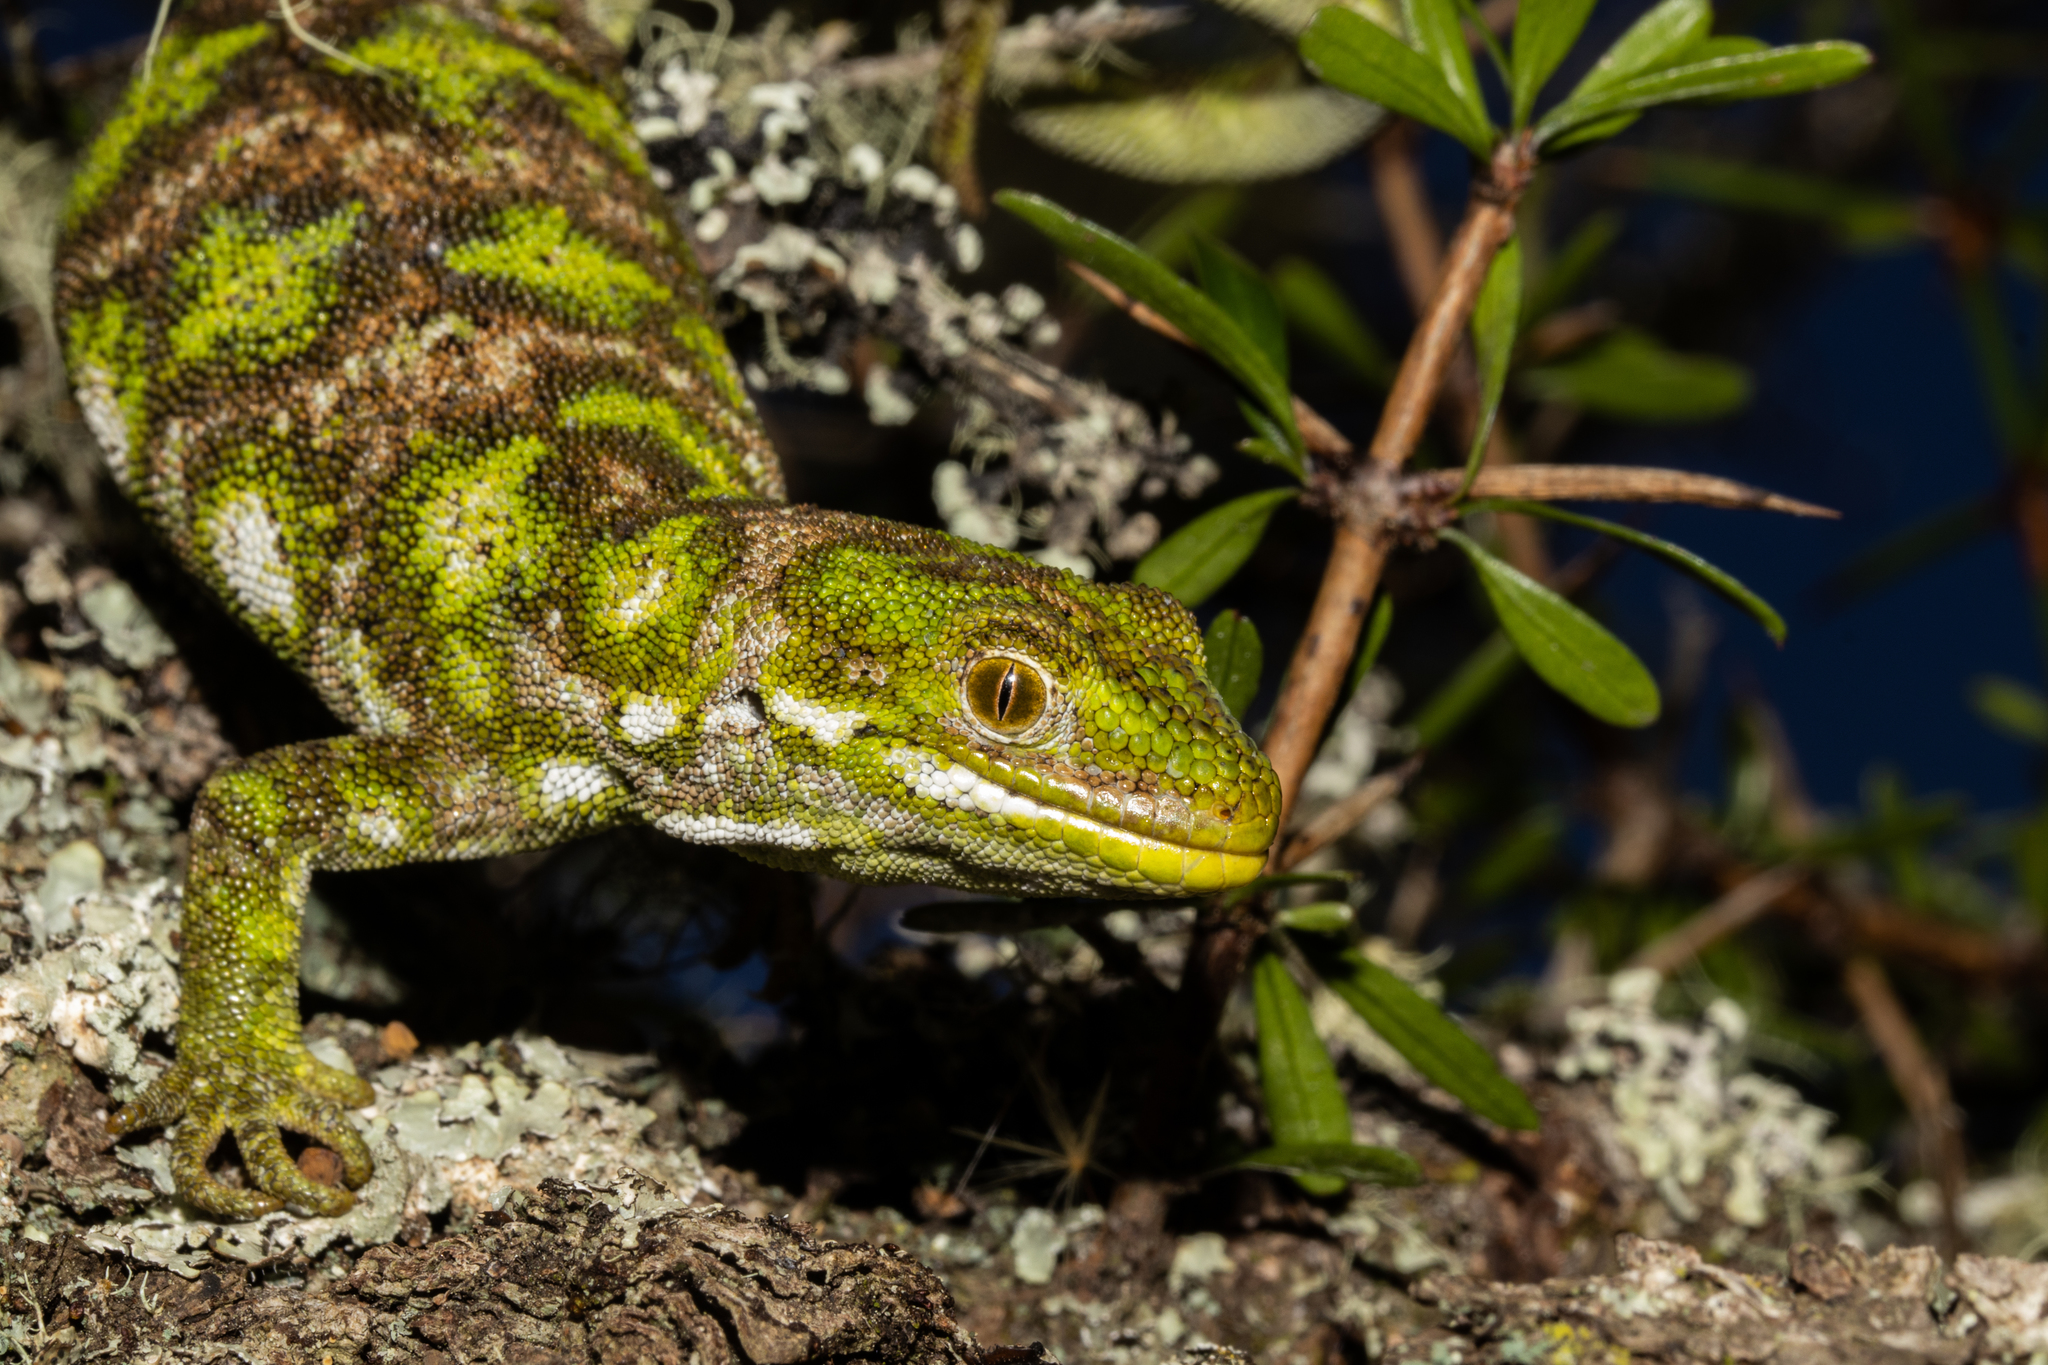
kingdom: Animalia
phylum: Chordata
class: Squamata
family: Diplodactylidae
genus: Naultinus
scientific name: Naultinus stellatus
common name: Nelson green gecko
